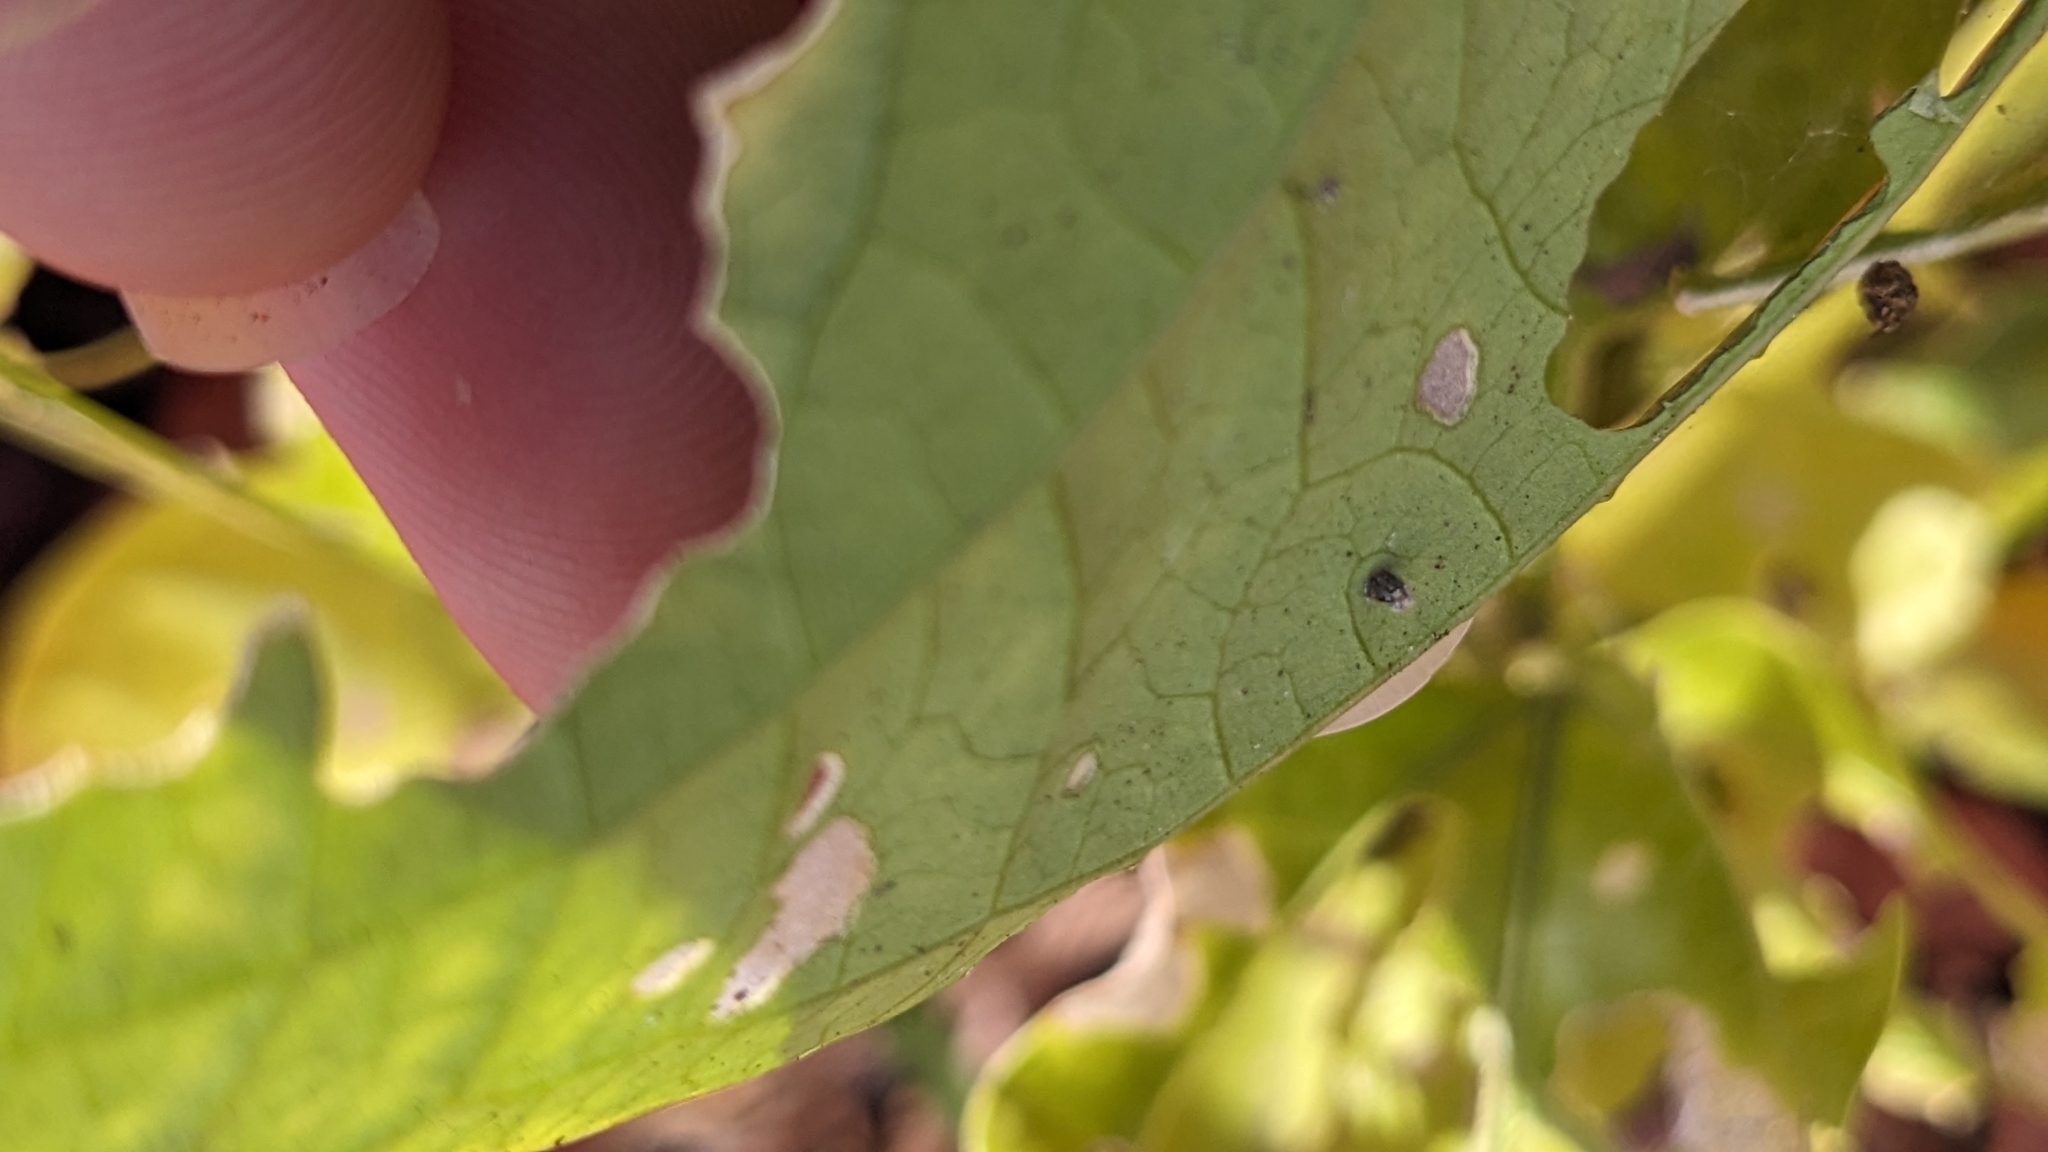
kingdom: Animalia
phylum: Arthropoda
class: Insecta
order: Lepidoptera
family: Nymphalidae
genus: Dione
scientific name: Dione vanillae
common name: Gulf fritillary
